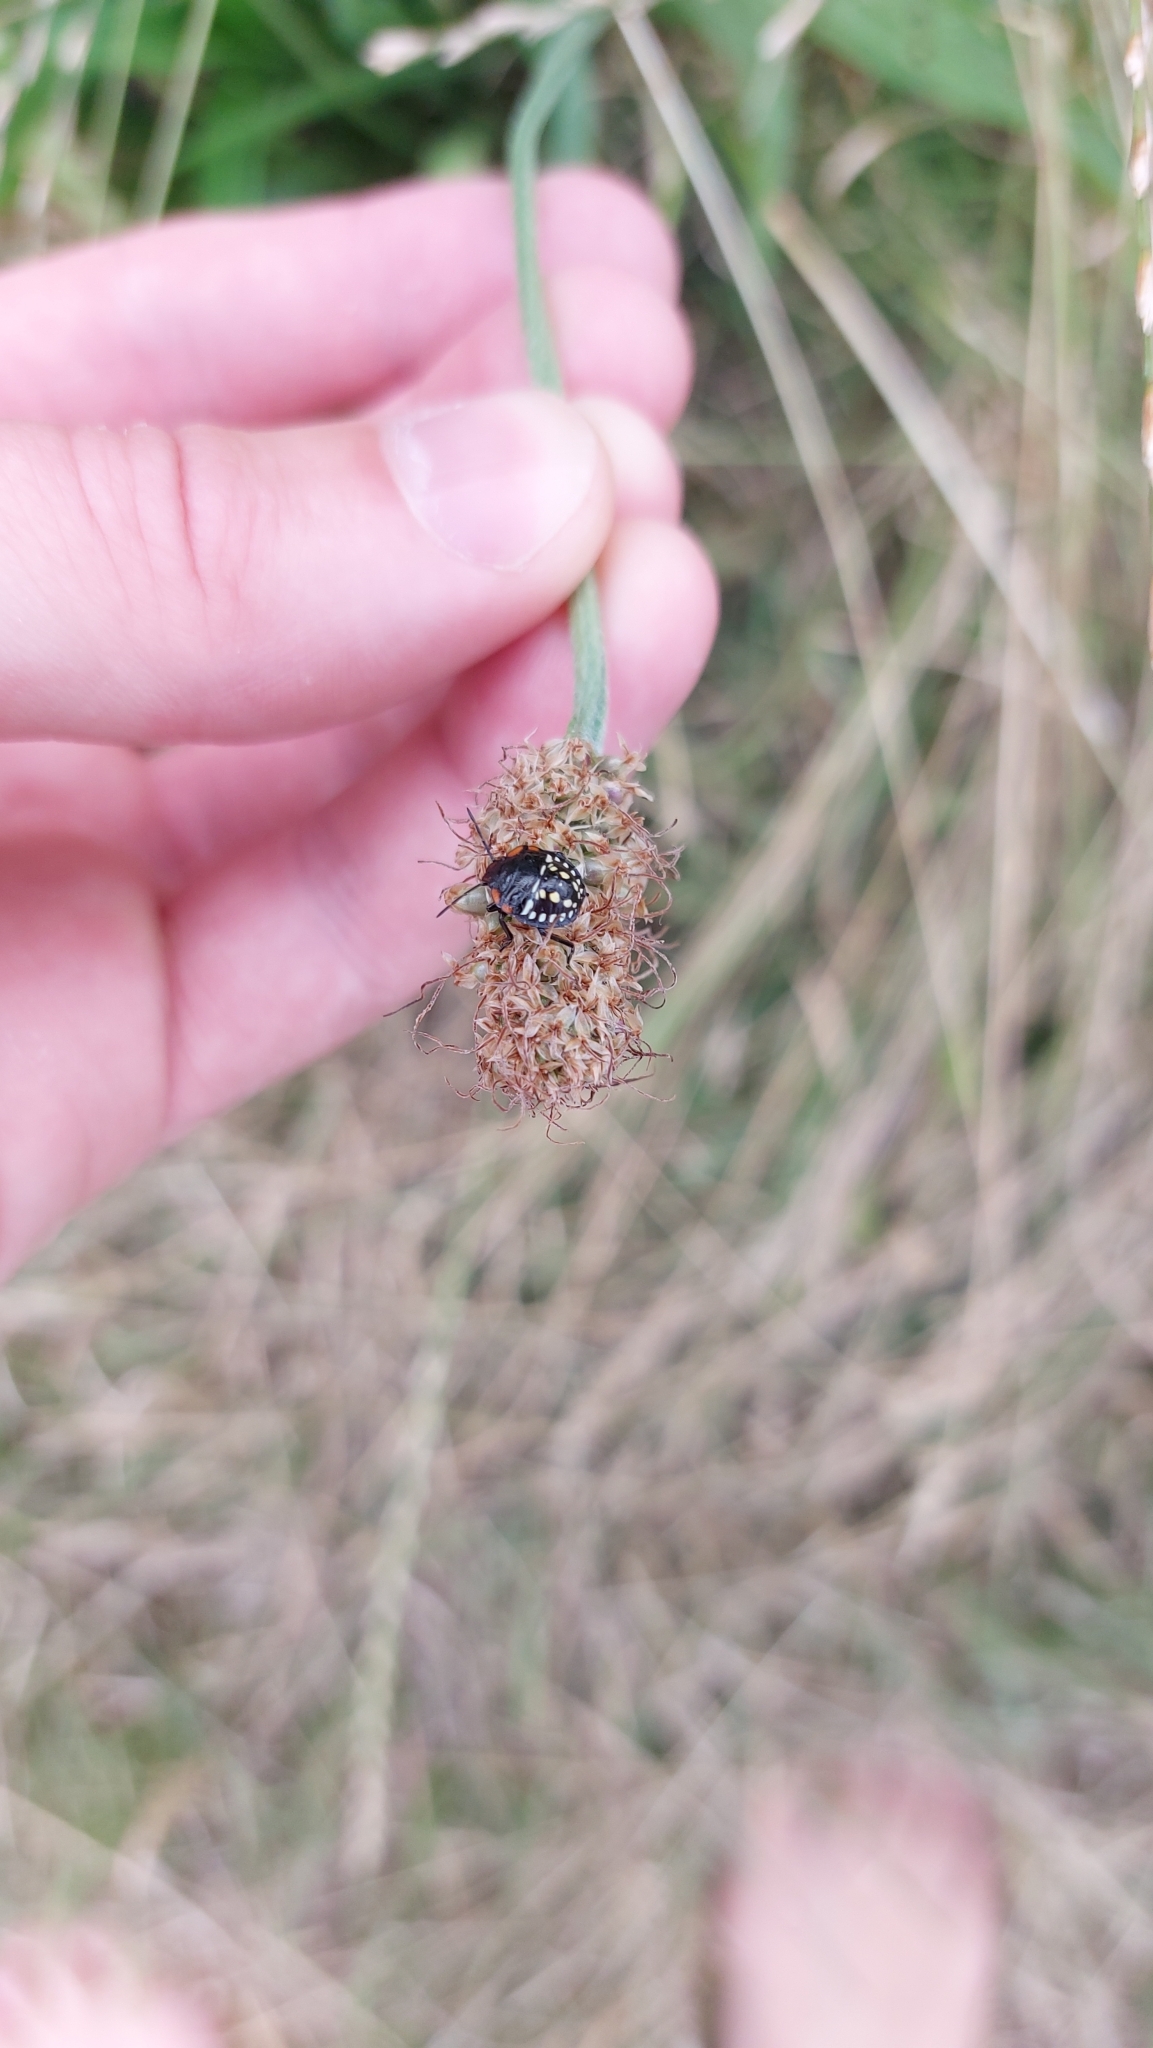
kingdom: Animalia
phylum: Arthropoda
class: Insecta
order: Hemiptera
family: Pentatomidae
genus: Nezara
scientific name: Nezara viridula
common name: Southern green stink bug
